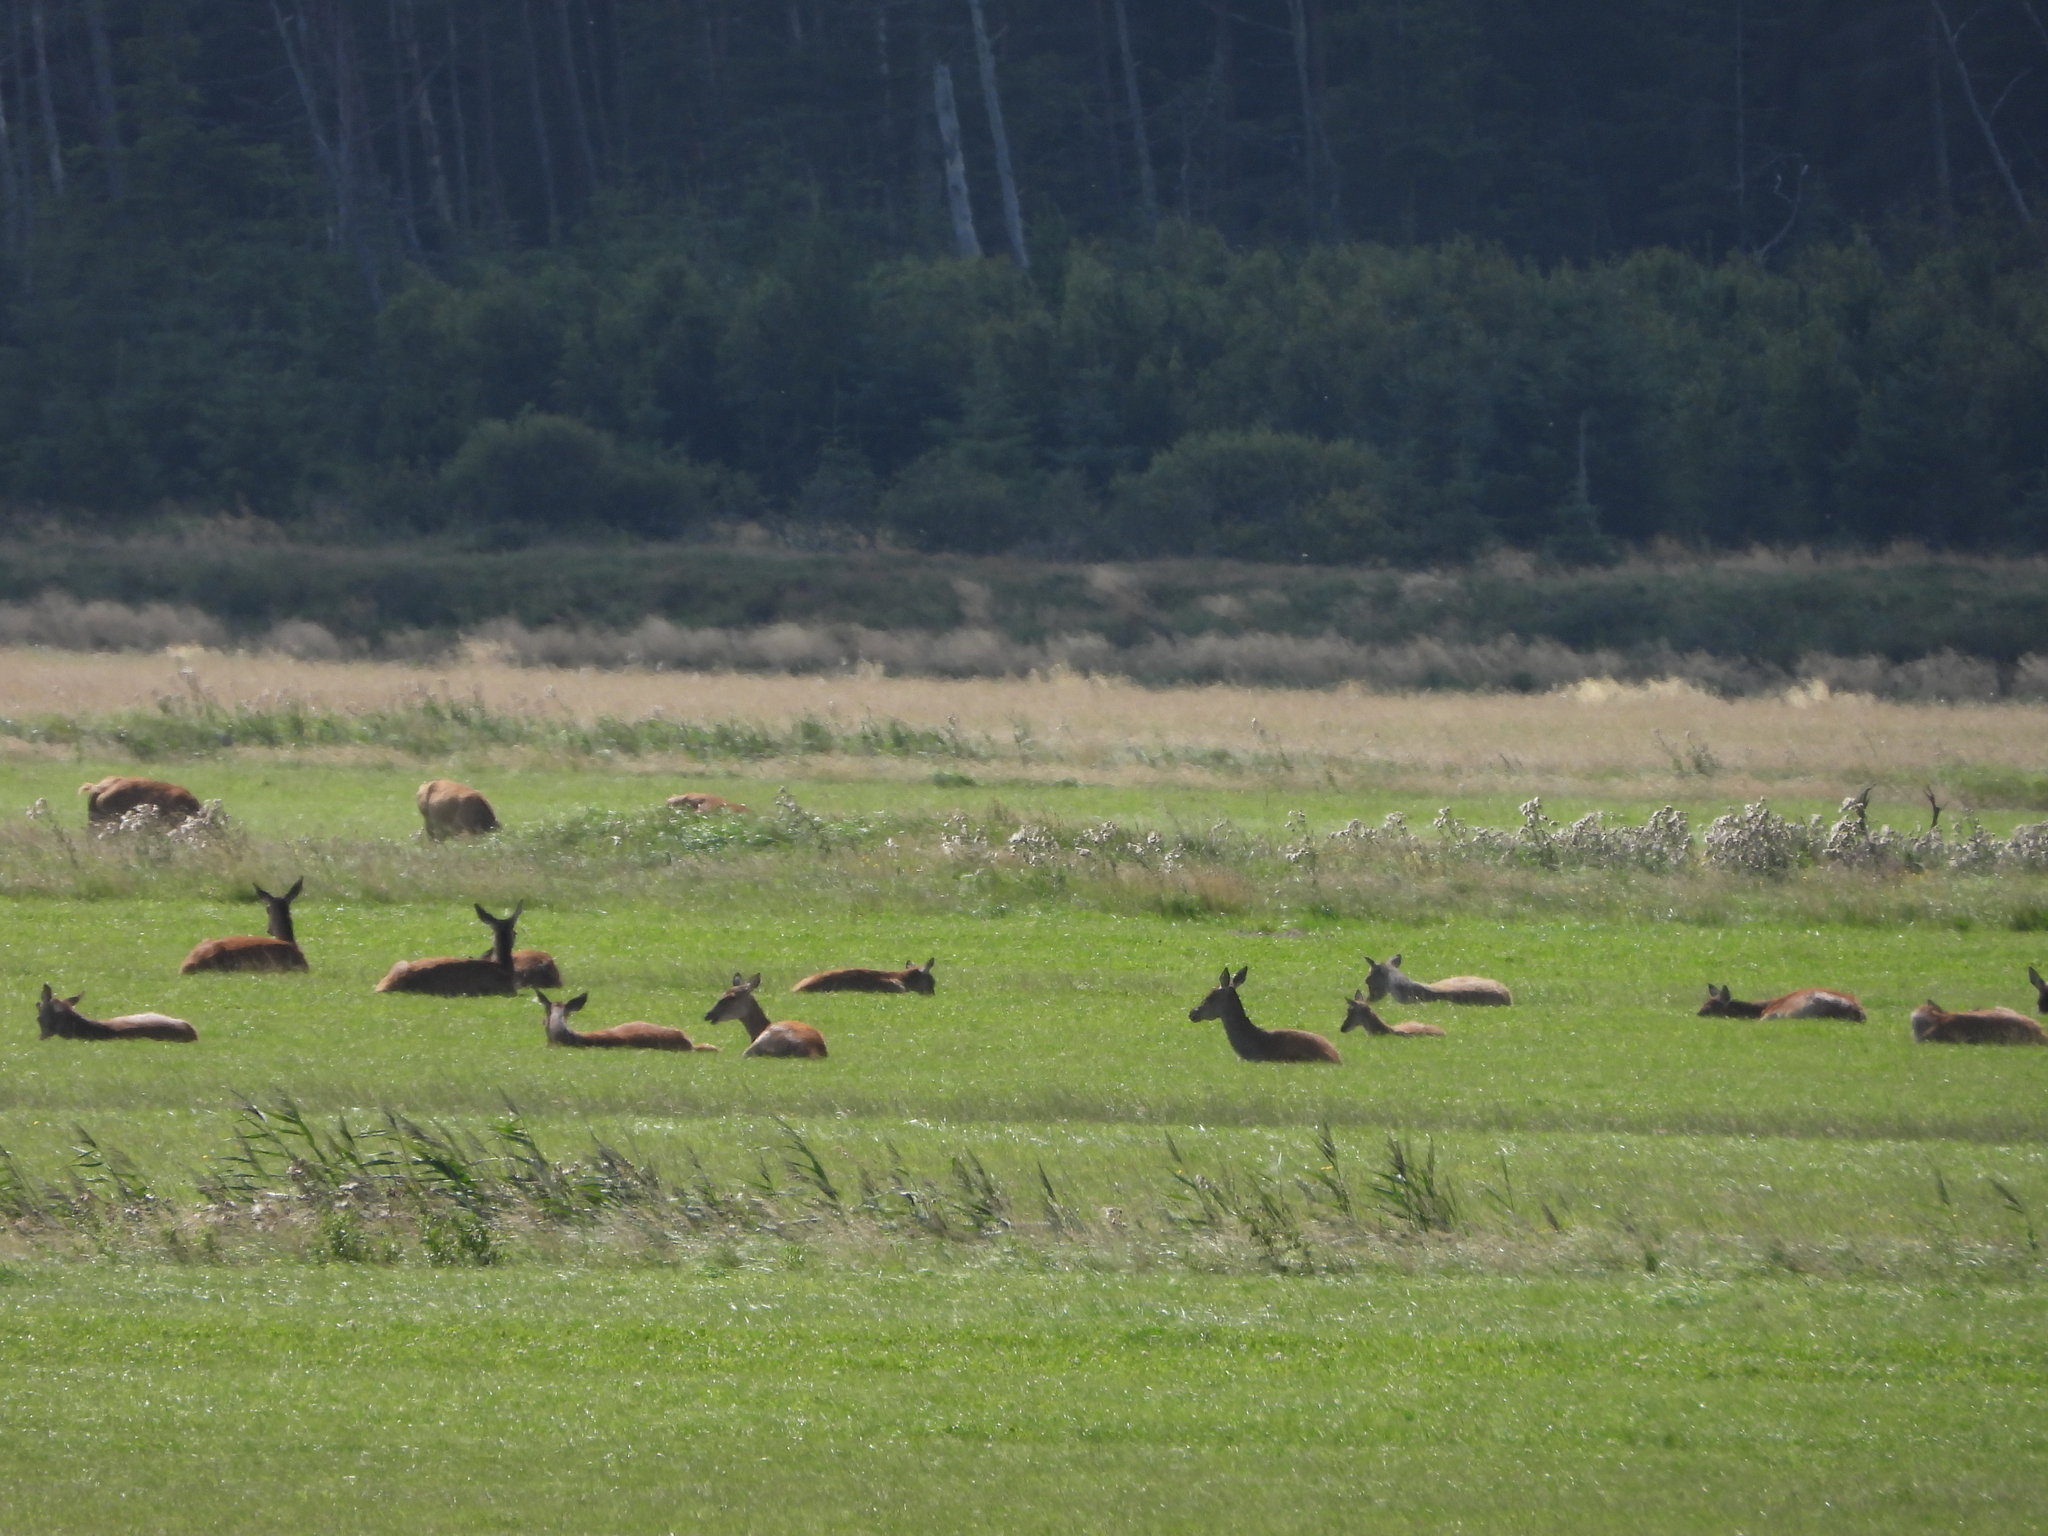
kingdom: Animalia
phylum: Chordata
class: Mammalia
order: Artiodactyla
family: Cervidae
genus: Cervus
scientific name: Cervus elaphus
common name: Red deer
